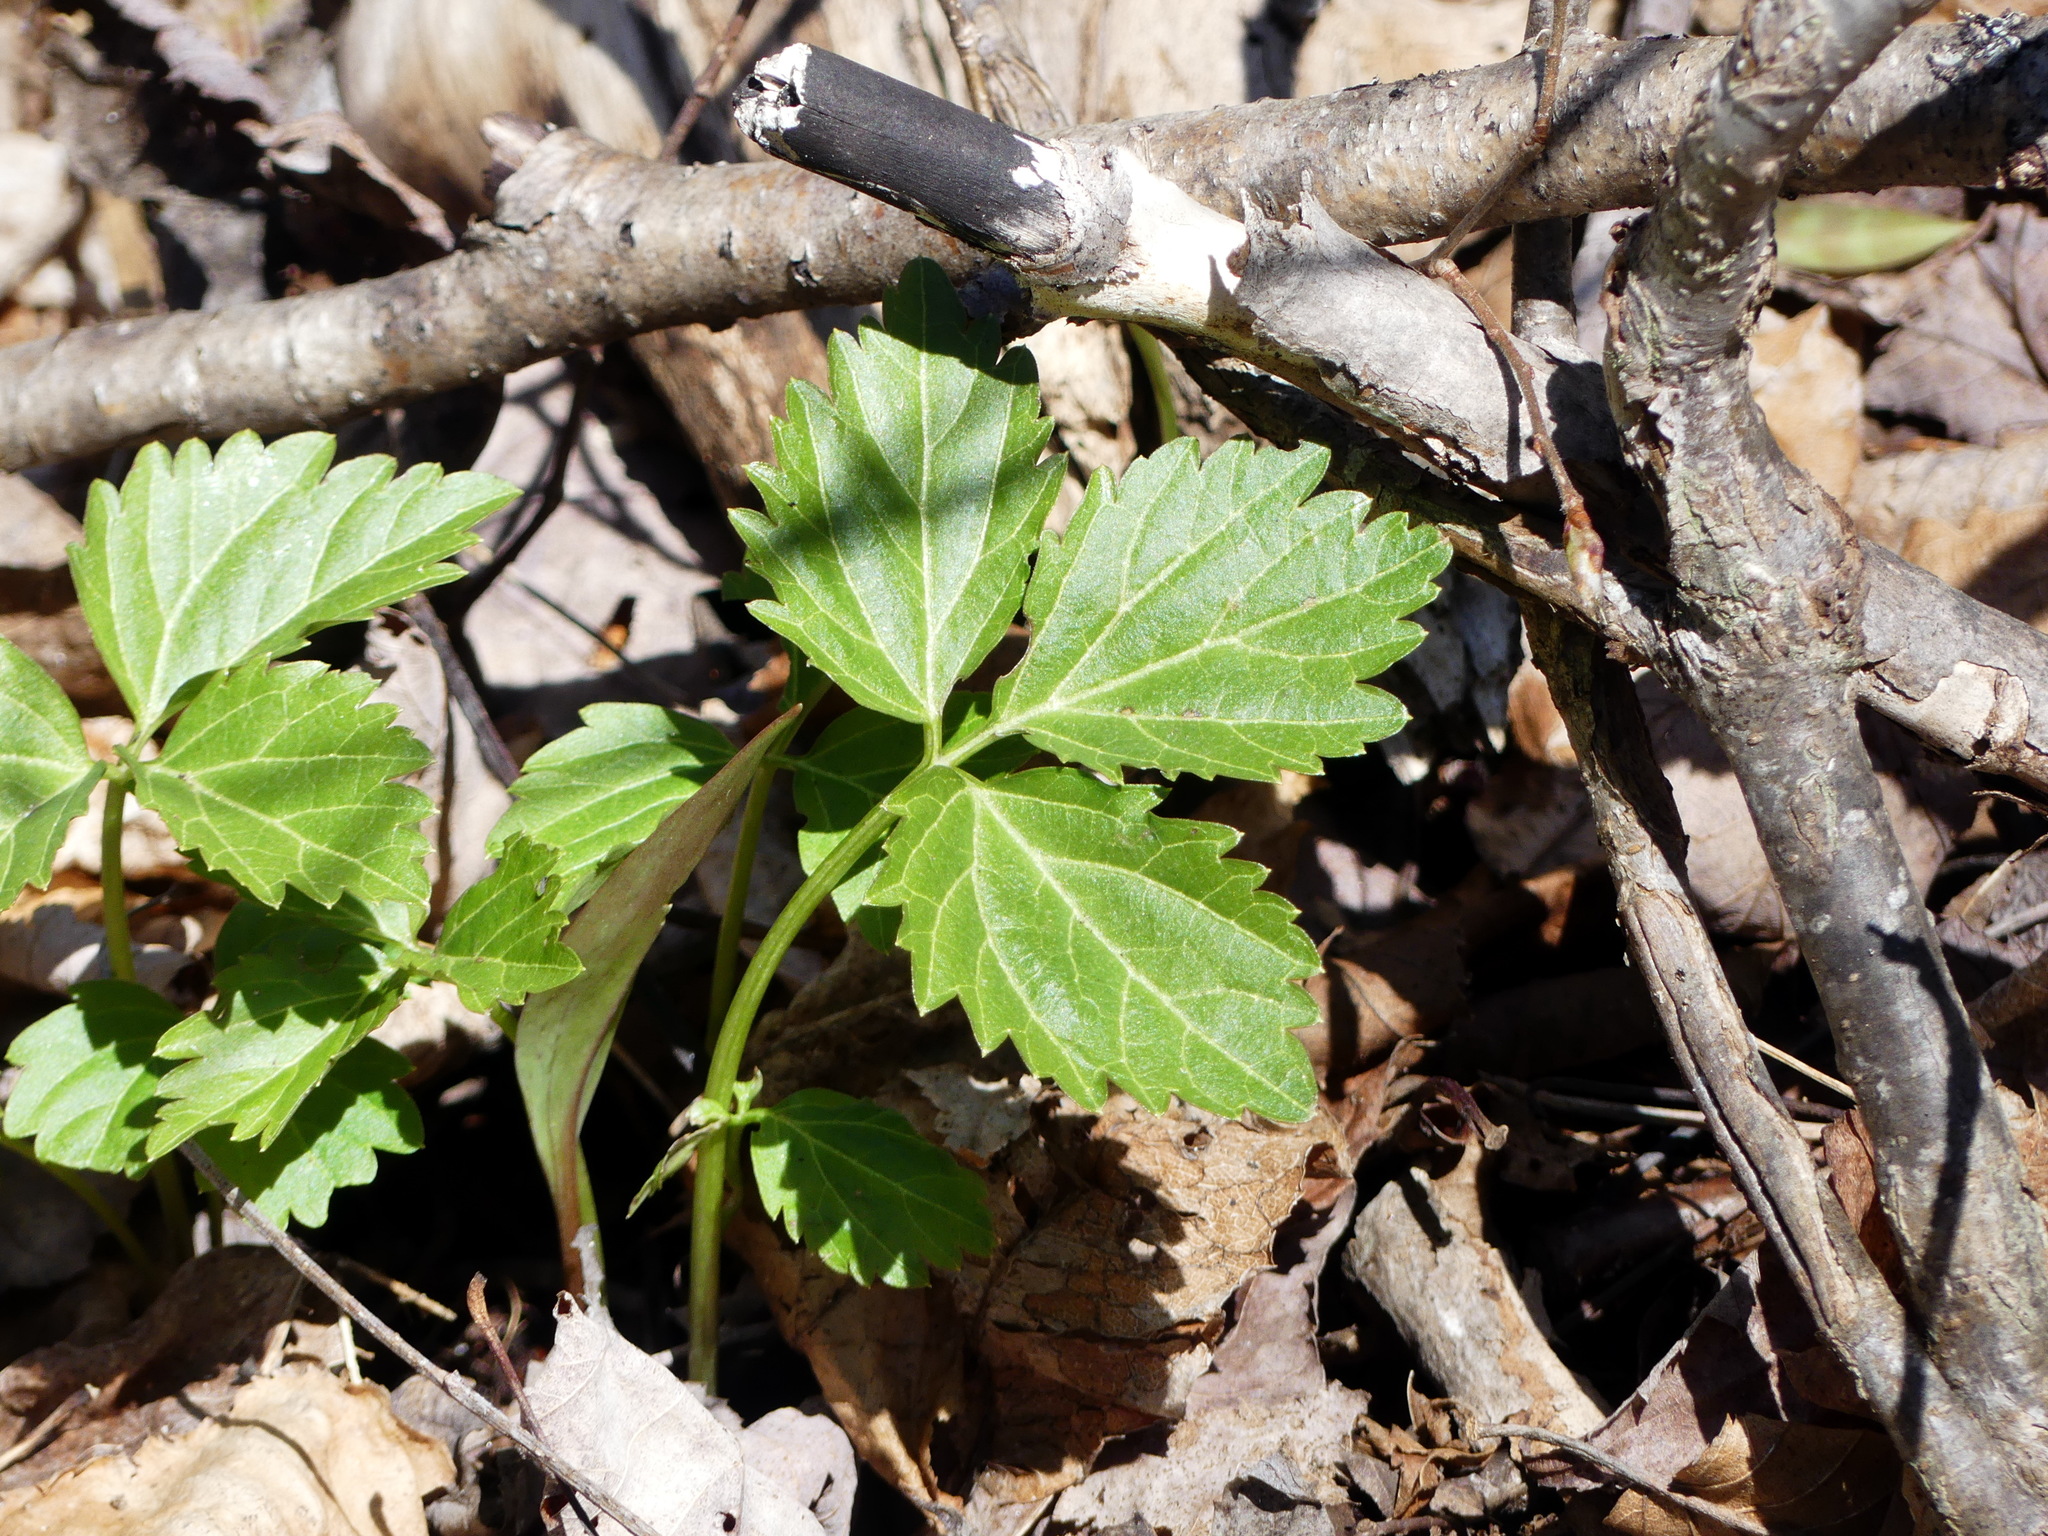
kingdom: Plantae
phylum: Tracheophyta
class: Magnoliopsida
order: Brassicales
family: Brassicaceae
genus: Cardamine
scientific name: Cardamine diphylla
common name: Broad-leaved toothwort
